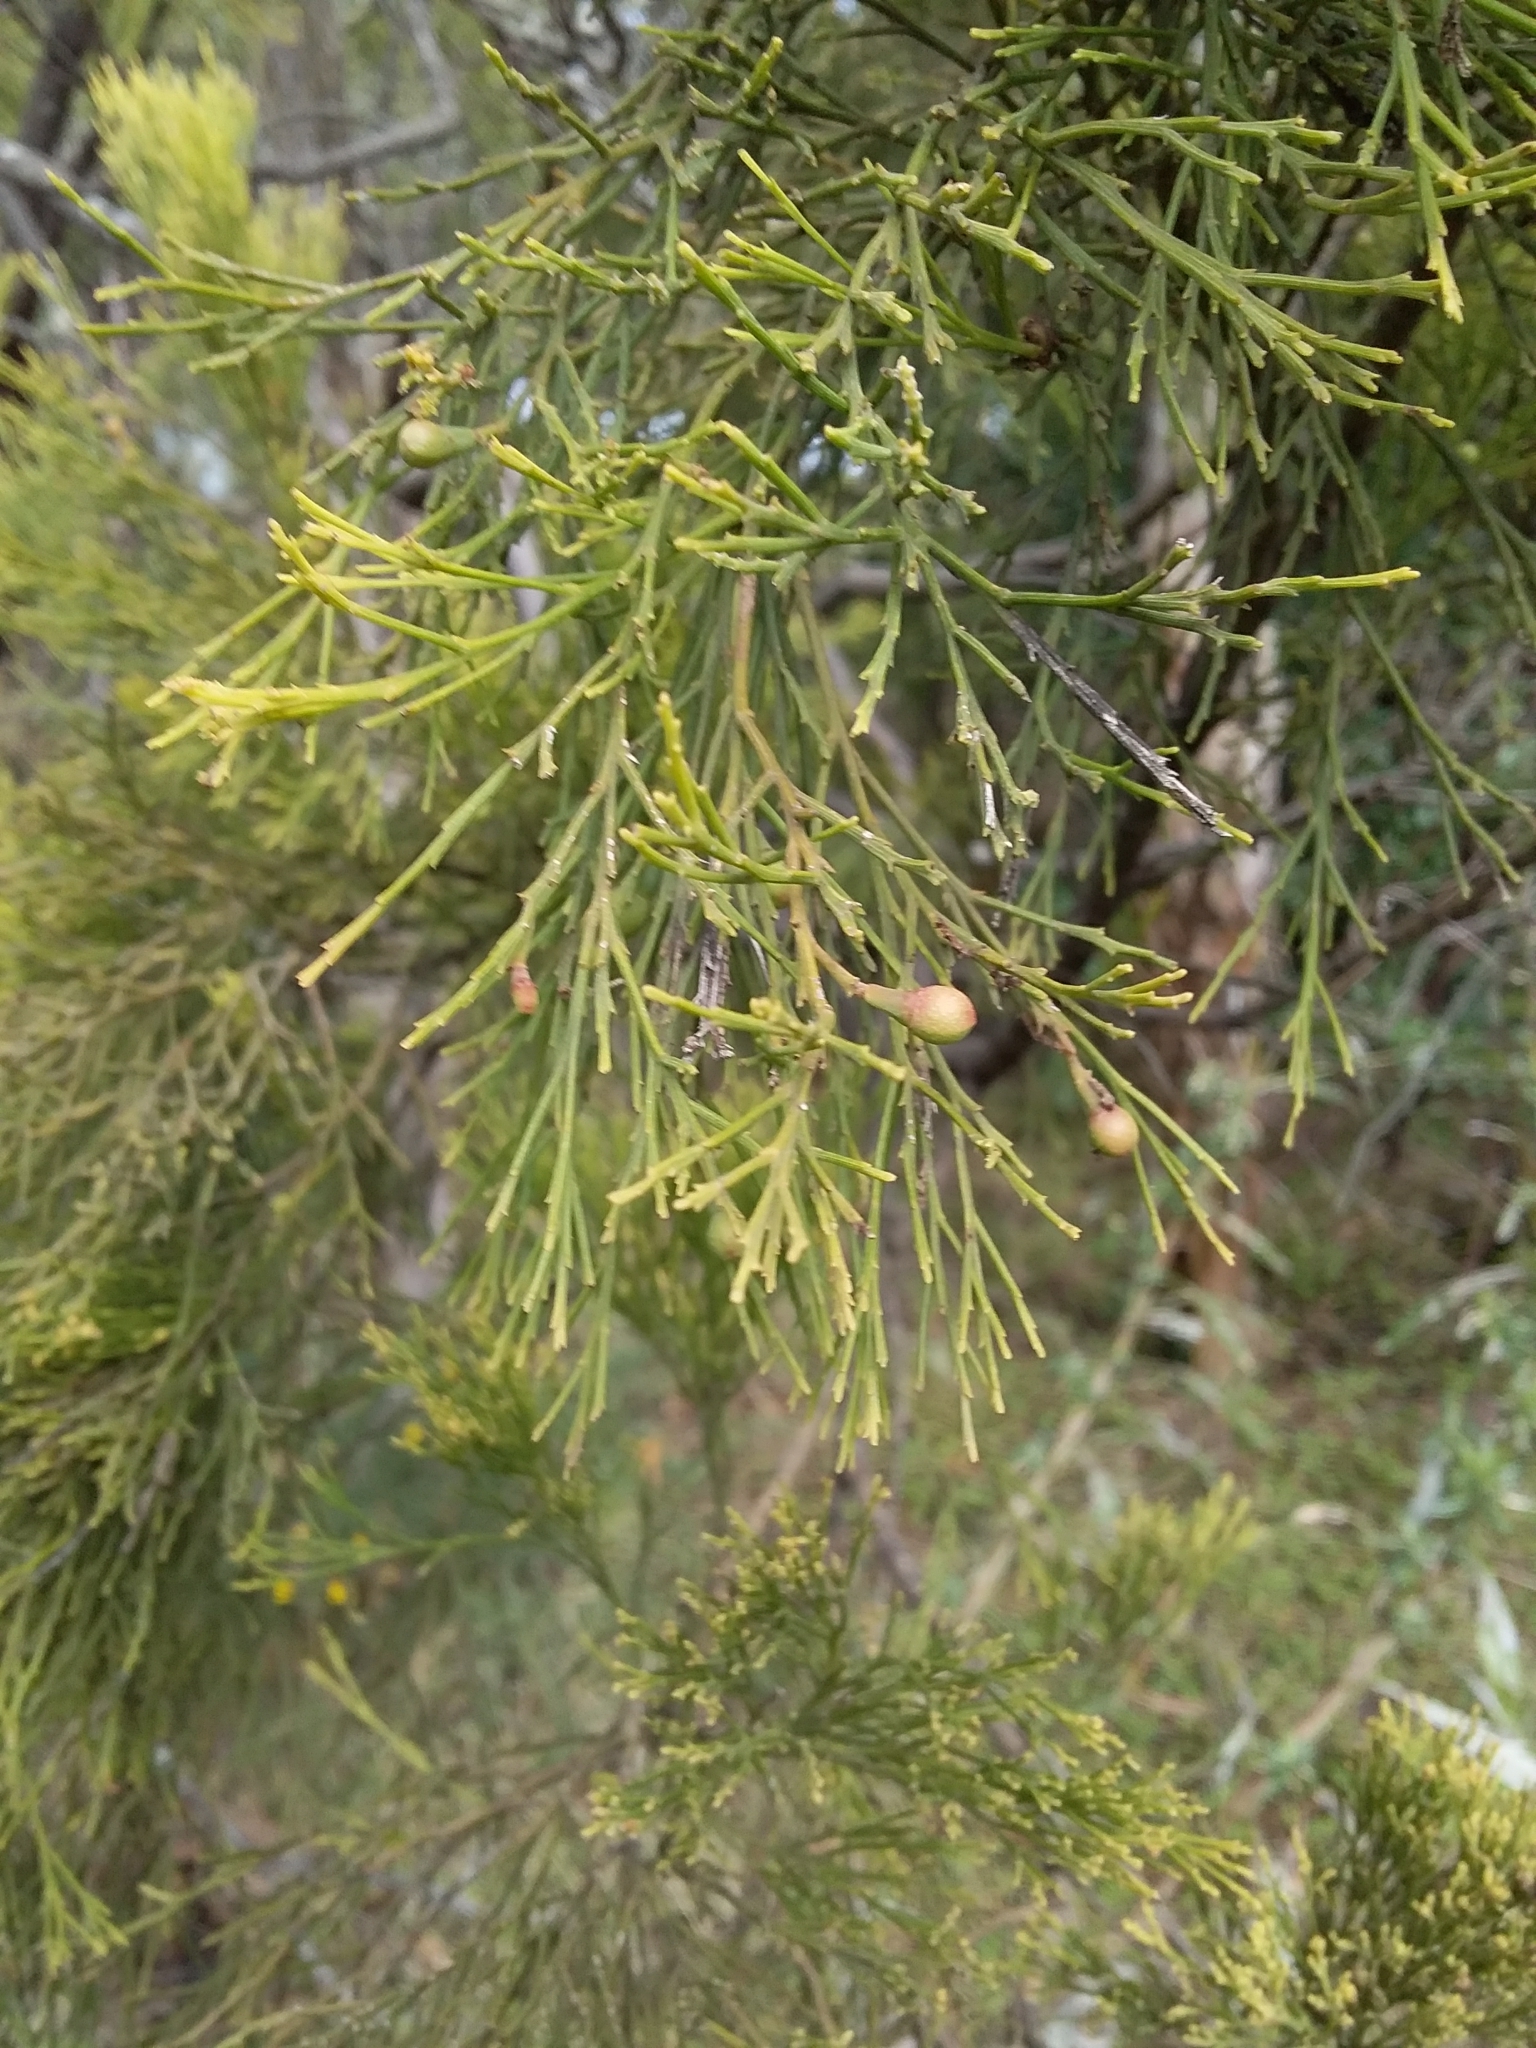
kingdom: Plantae
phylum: Tracheophyta
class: Magnoliopsida
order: Santalales
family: Santalaceae
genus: Exocarpos
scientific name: Exocarpos cupressiformis
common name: Cherry ballart
